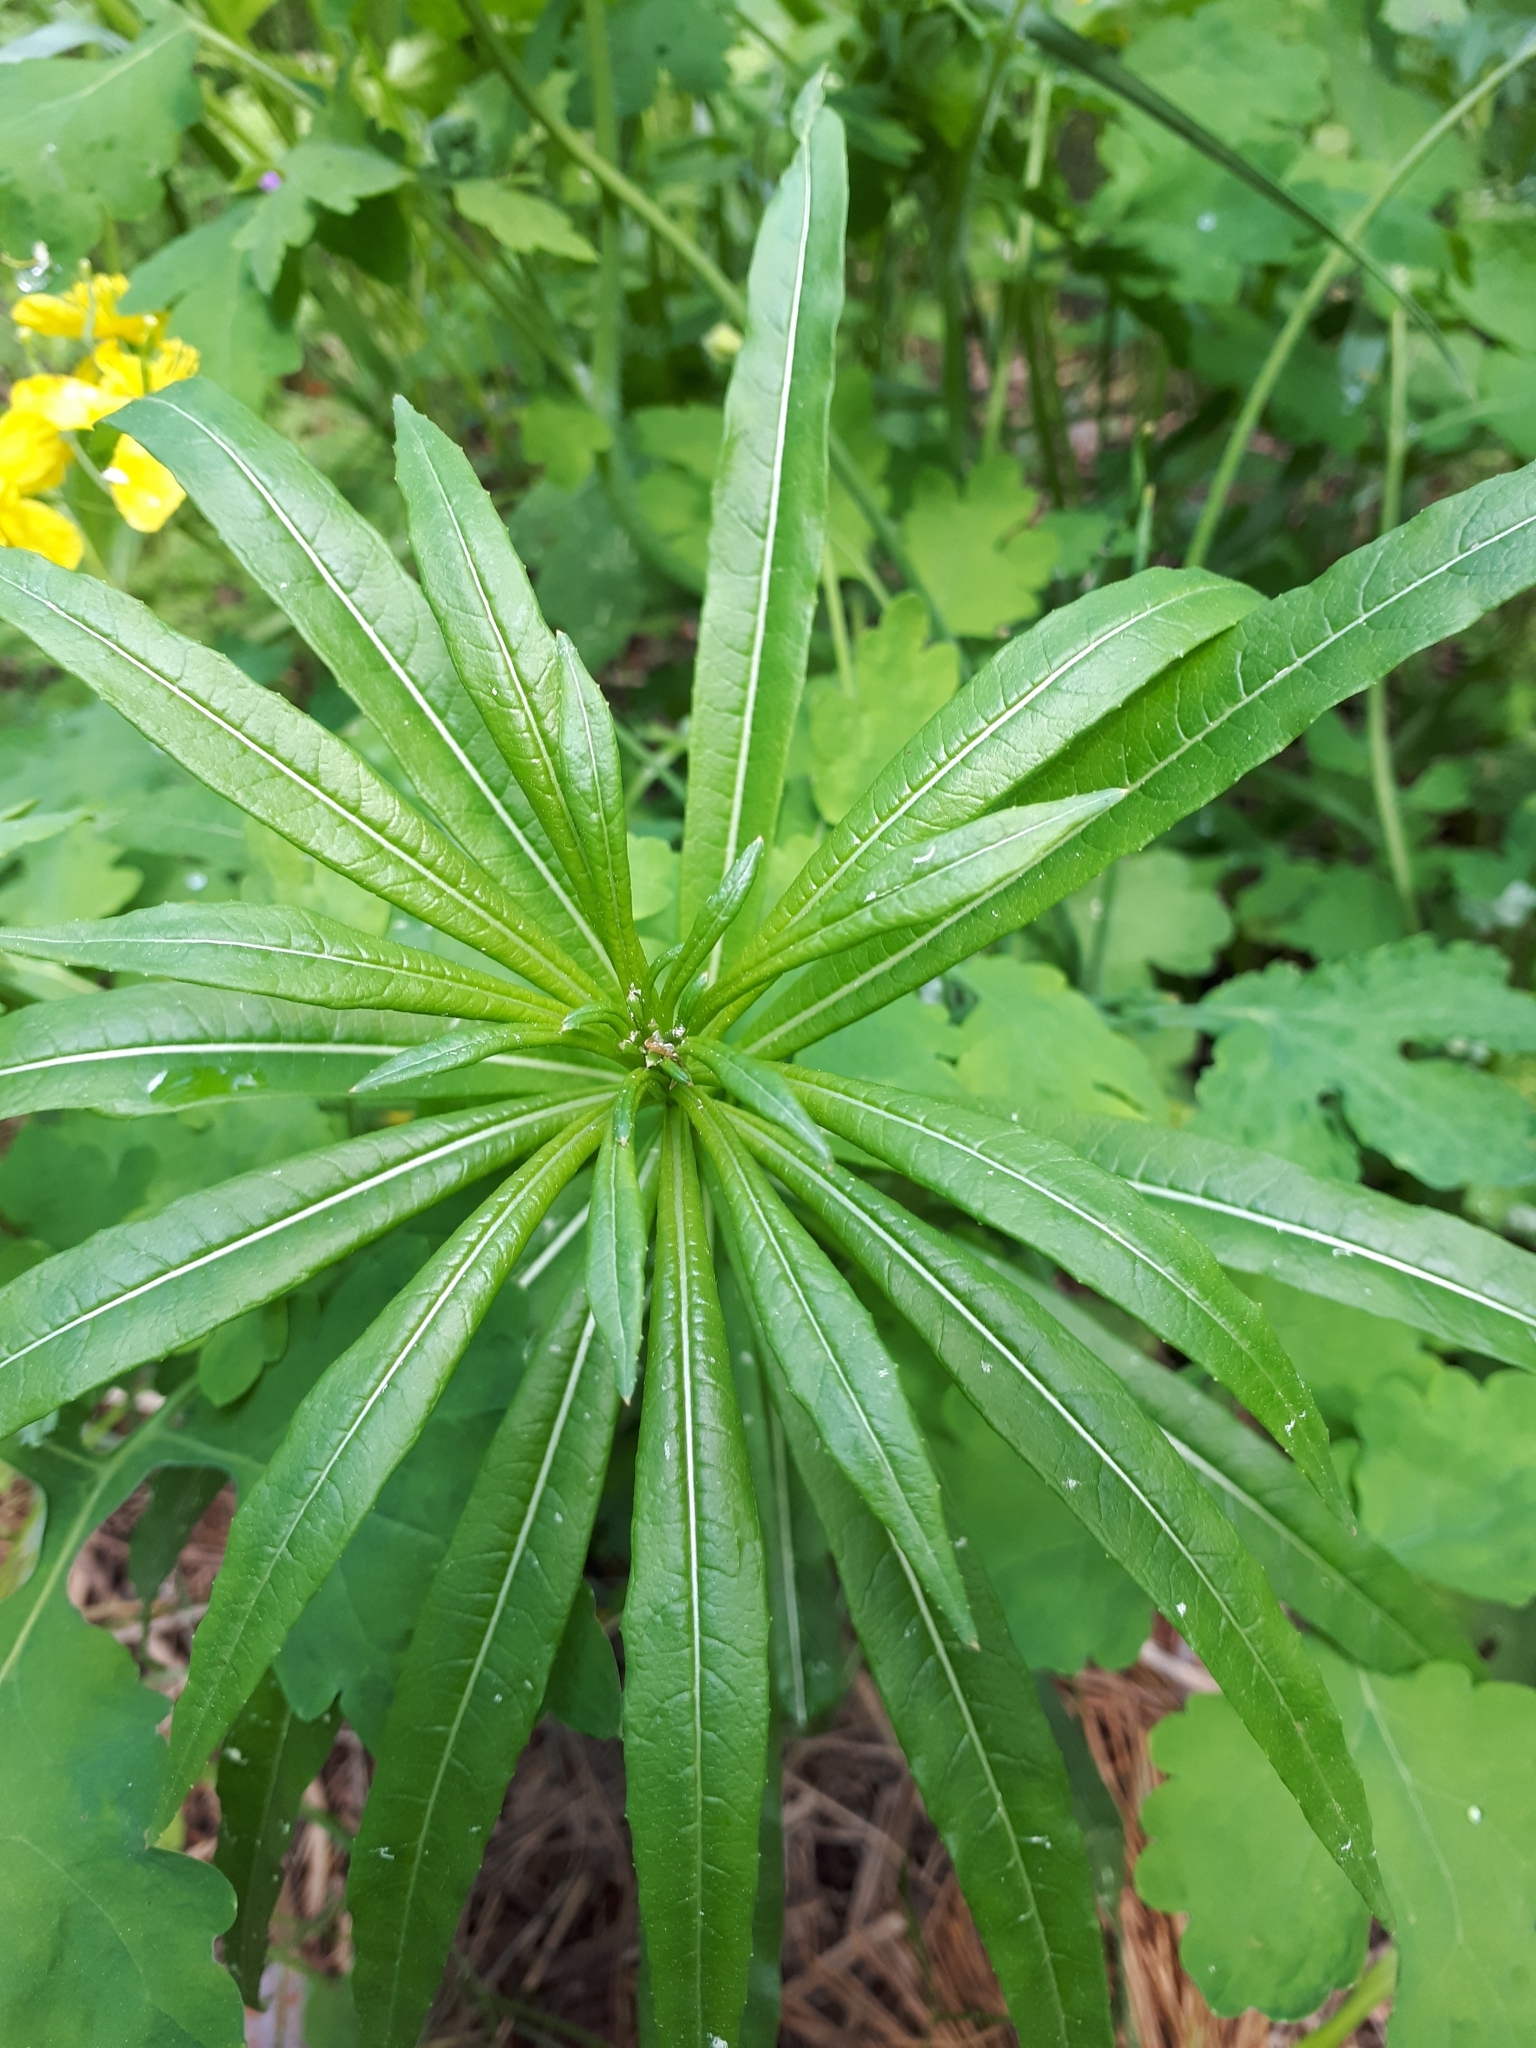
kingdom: Plantae
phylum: Tracheophyta
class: Magnoliopsida
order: Myrtales
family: Onagraceae
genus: Chamaenerion
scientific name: Chamaenerion angustifolium
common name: Fireweed
